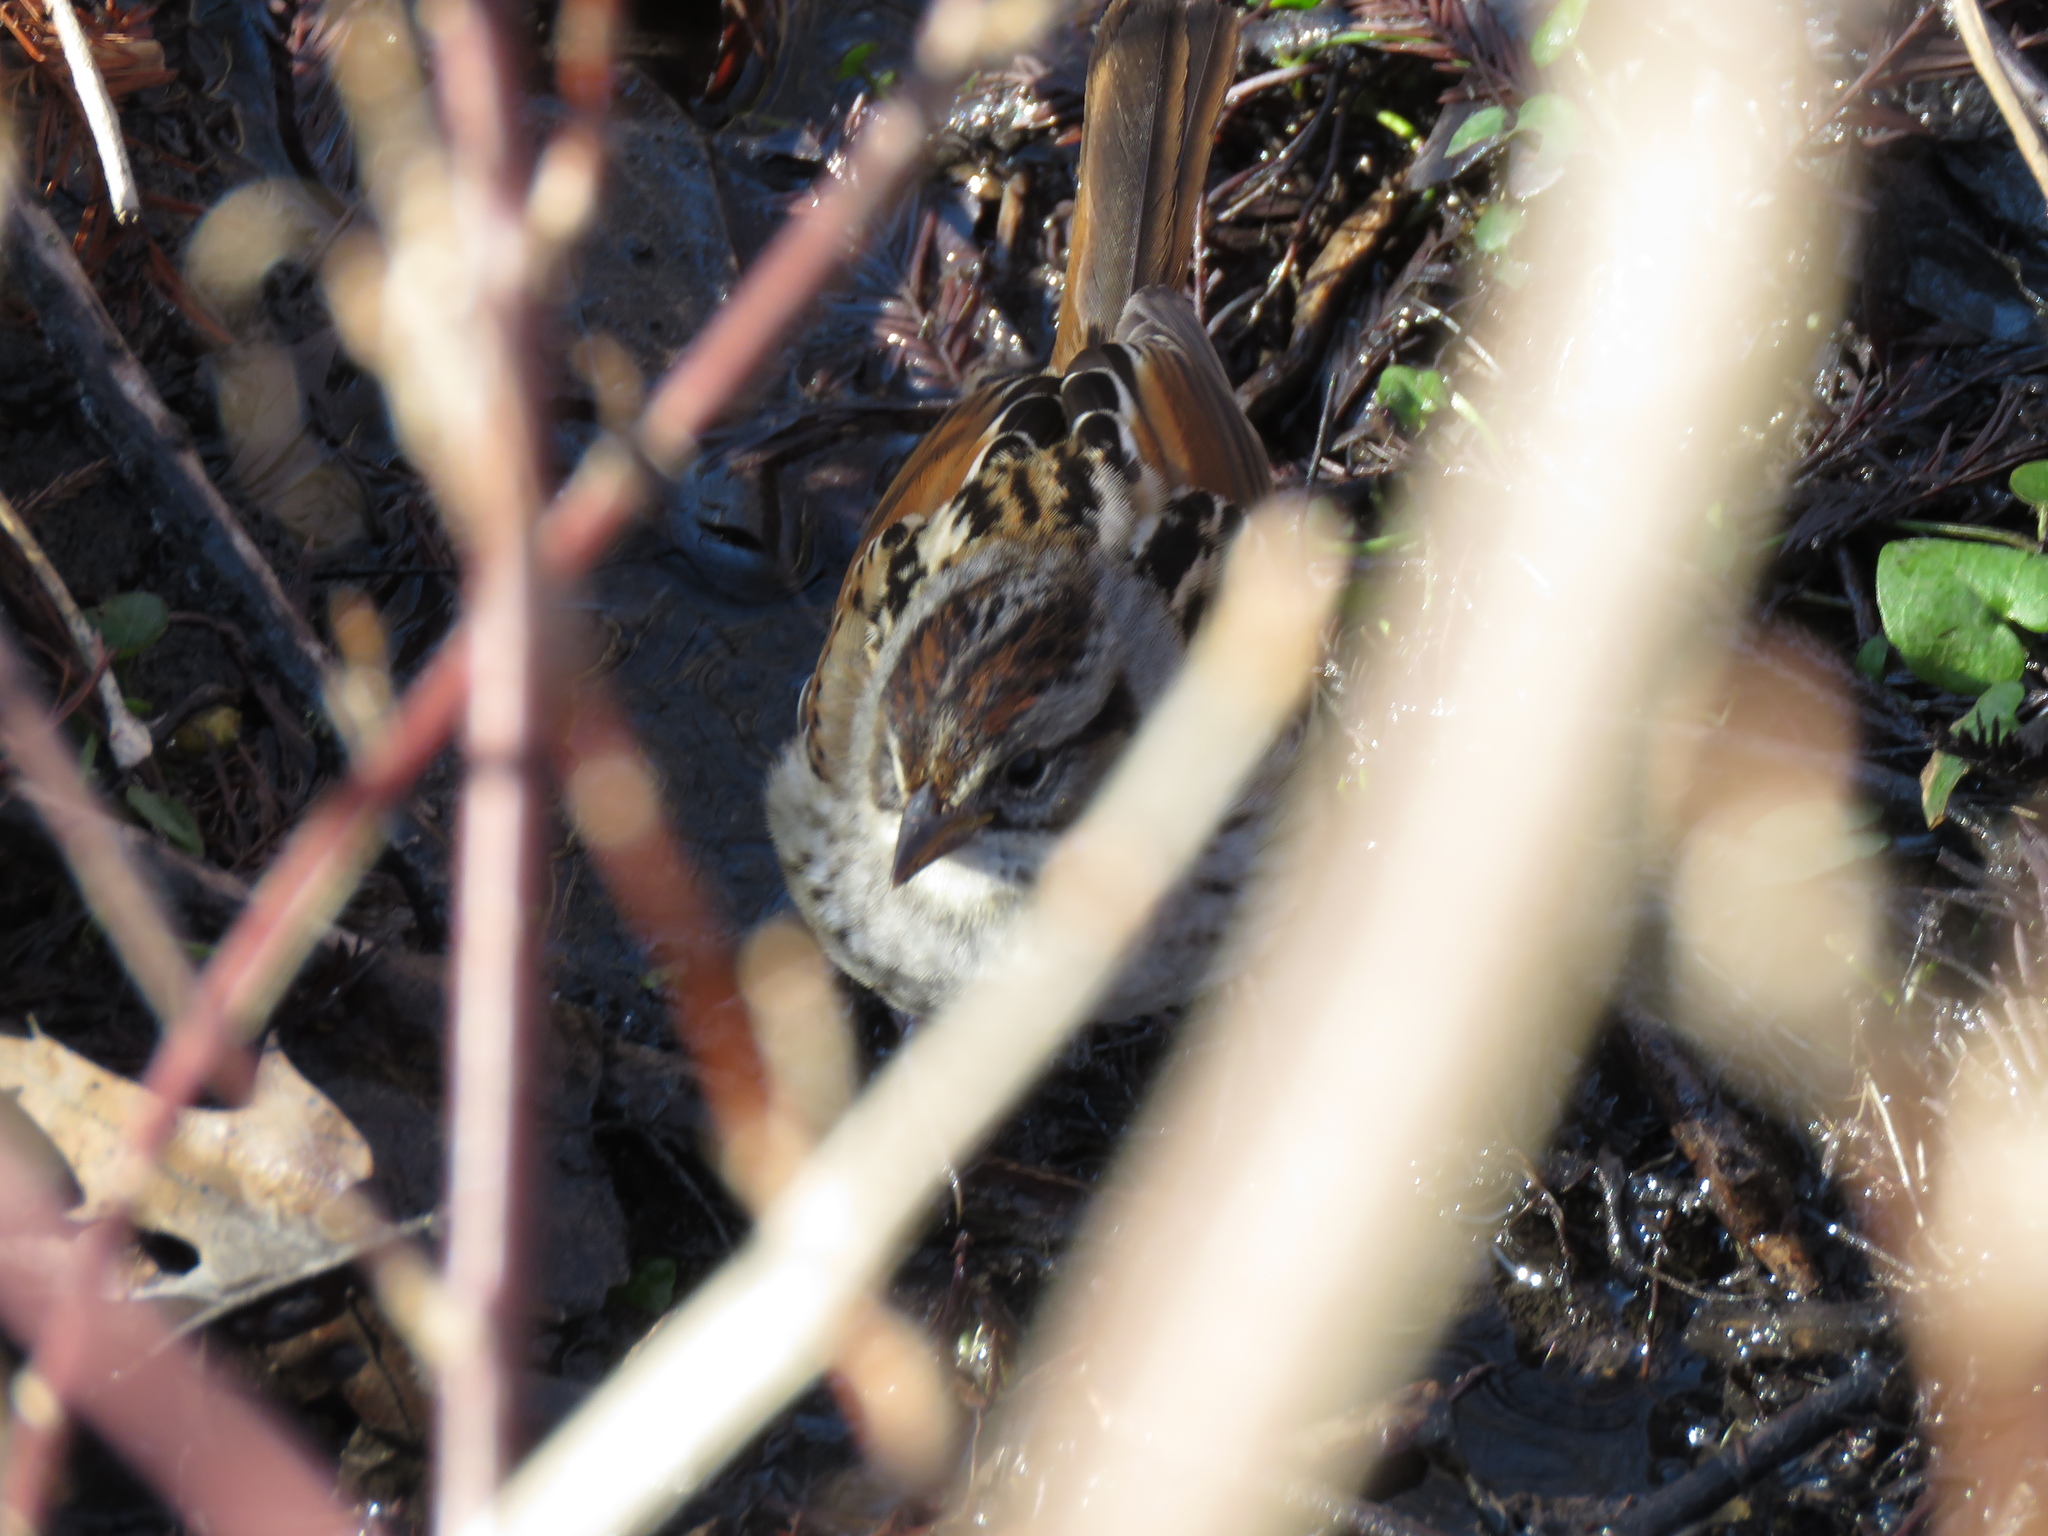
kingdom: Animalia
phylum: Chordata
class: Aves
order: Passeriformes
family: Passerellidae
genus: Melospiza
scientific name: Melospiza georgiana
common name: Swamp sparrow
